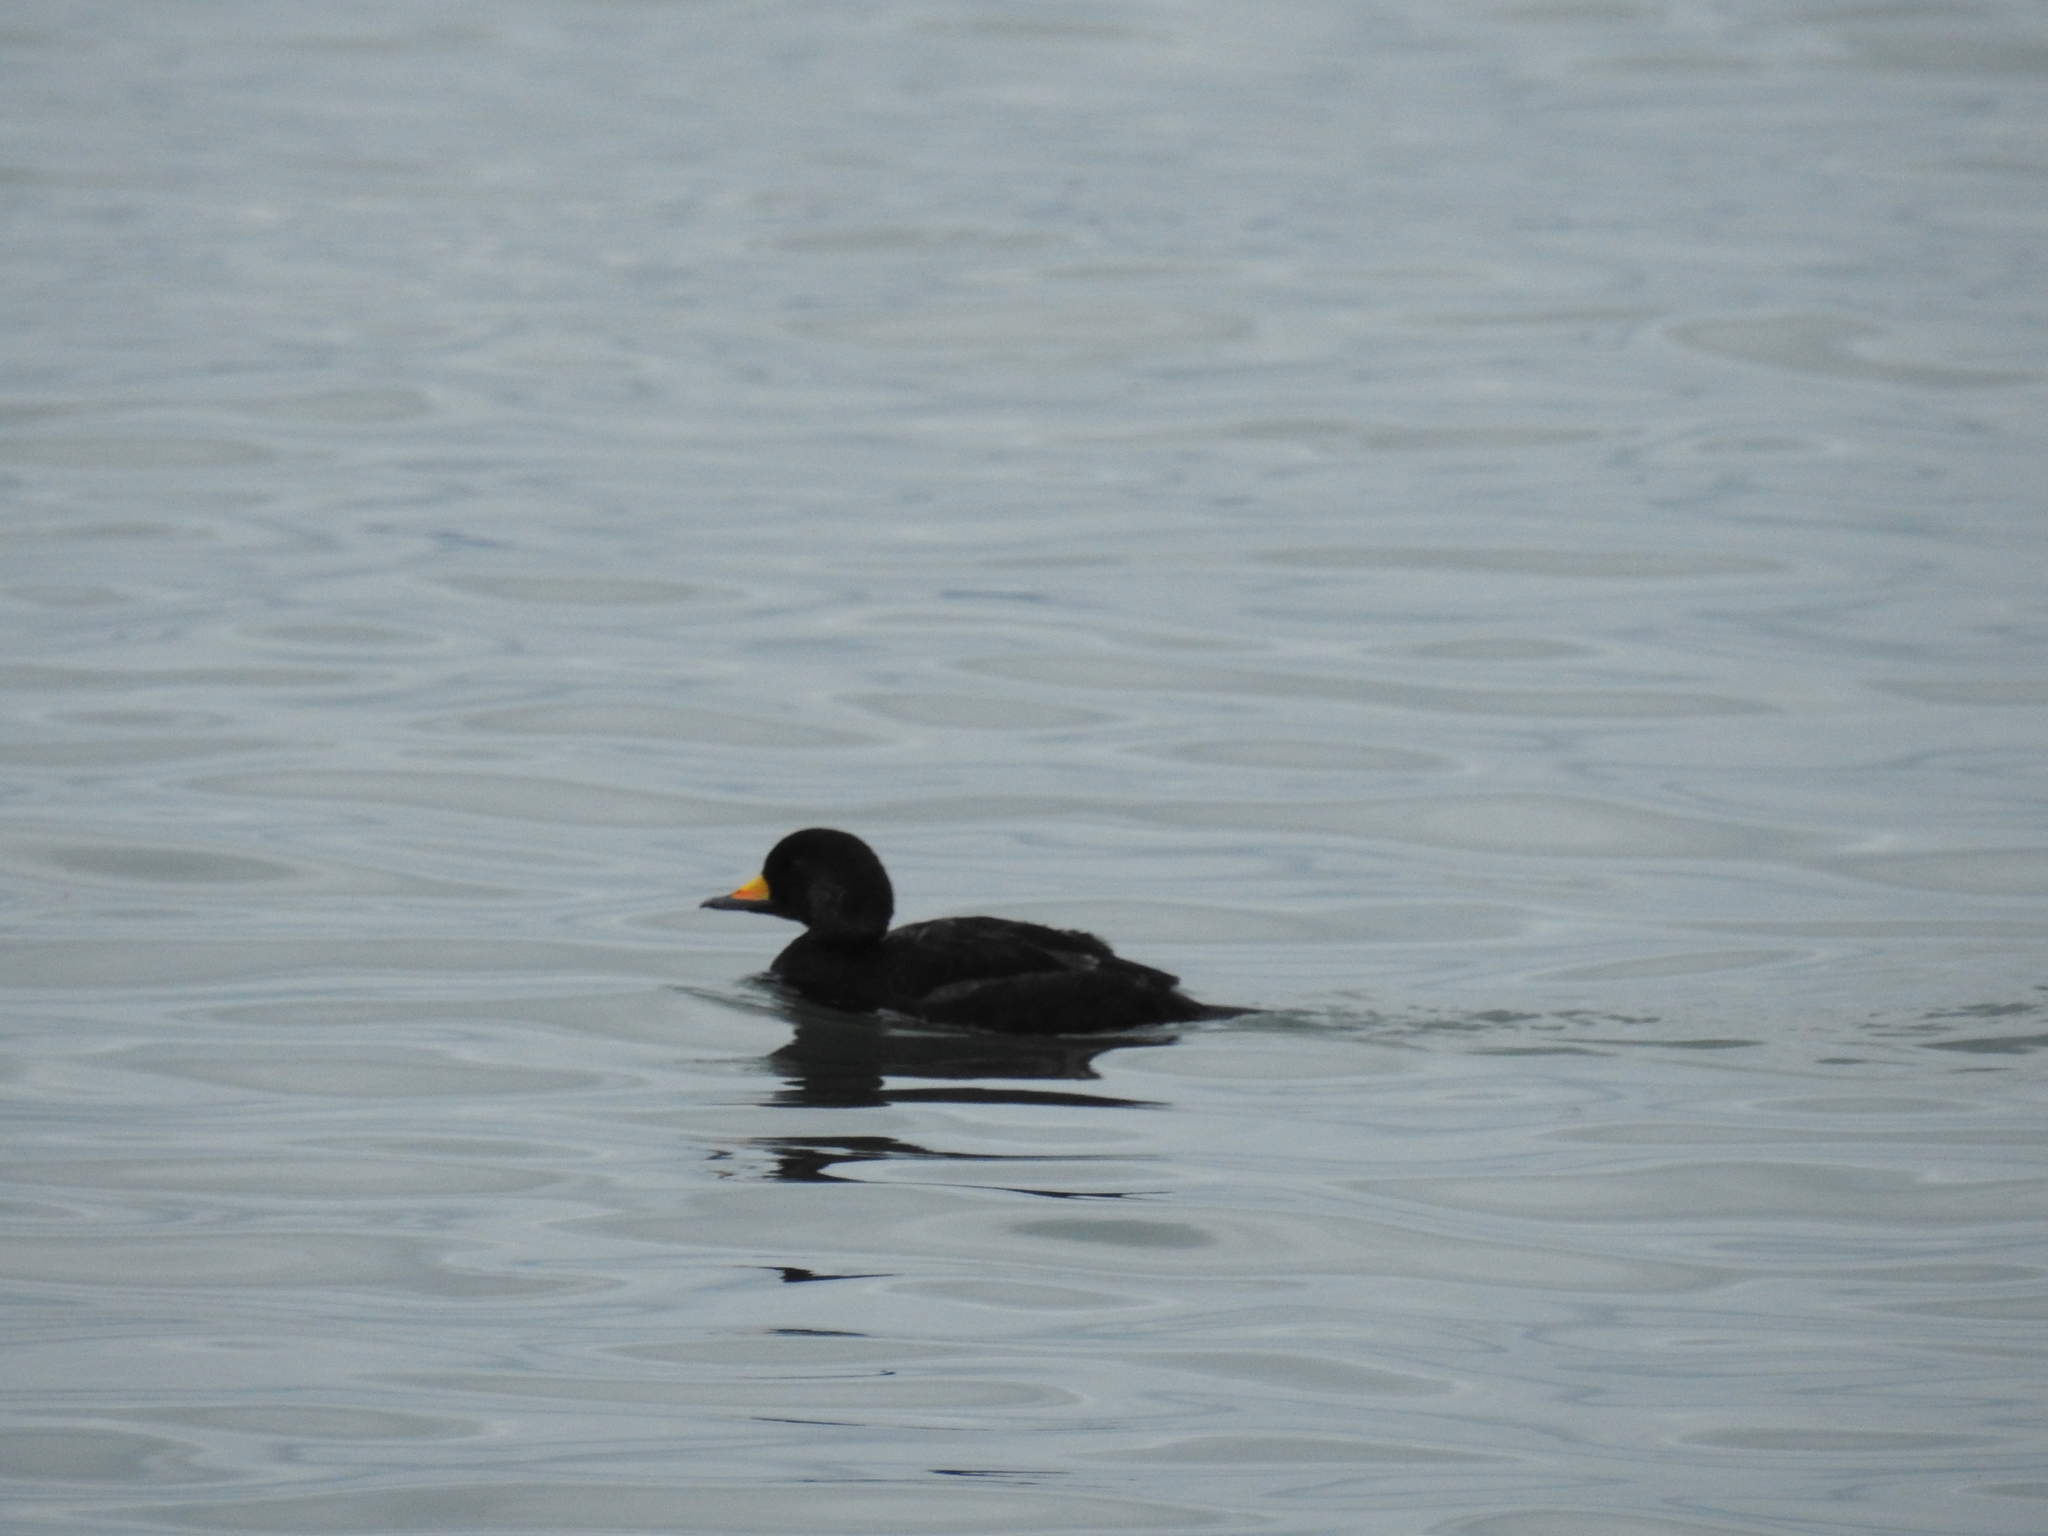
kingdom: Animalia
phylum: Chordata
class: Aves
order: Anseriformes
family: Anatidae
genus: Melanitta
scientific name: Melanitta americana
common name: Black scoter
